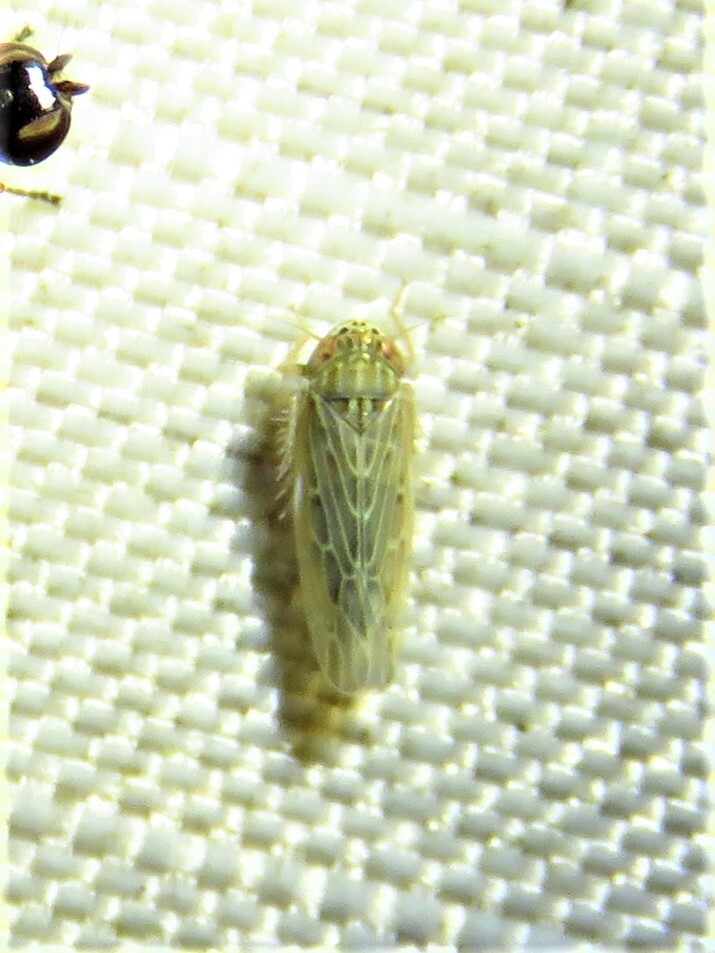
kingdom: Animalia
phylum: Arthropoda
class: Insecta
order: Hemiptera
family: Cicadellidae
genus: Graminella
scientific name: Graminella sonora
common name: Lesser lawn leafhopper
